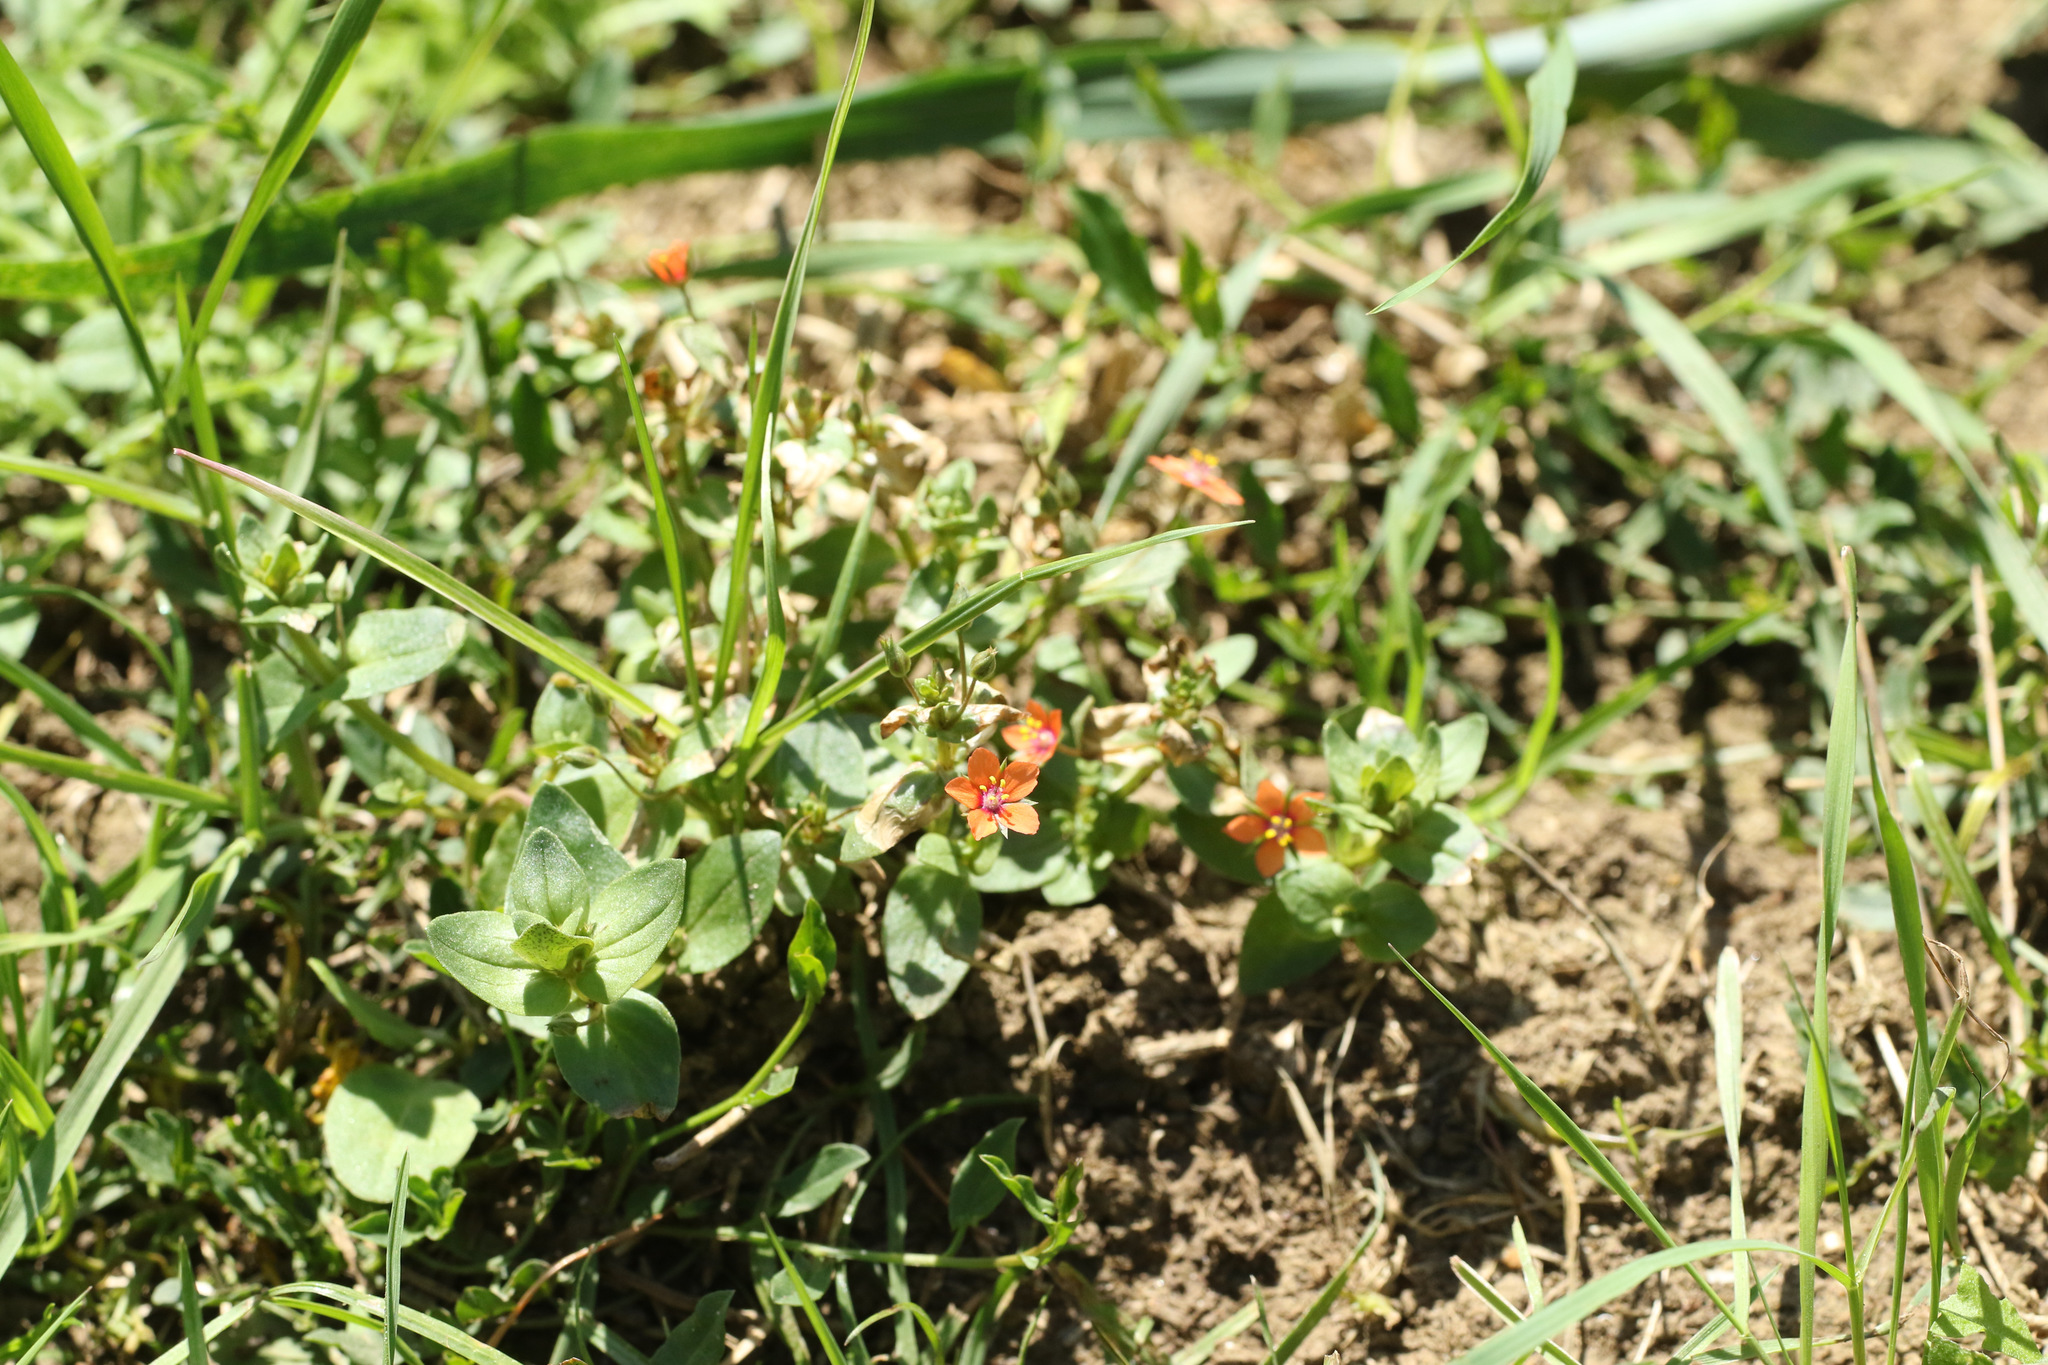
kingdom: Plantae
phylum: Tracheophyta
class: Magnoliopsida
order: Ericales
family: Primulaceae
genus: Lysimachia
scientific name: Lysimachia arvensis
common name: Scarlet pimpernel
